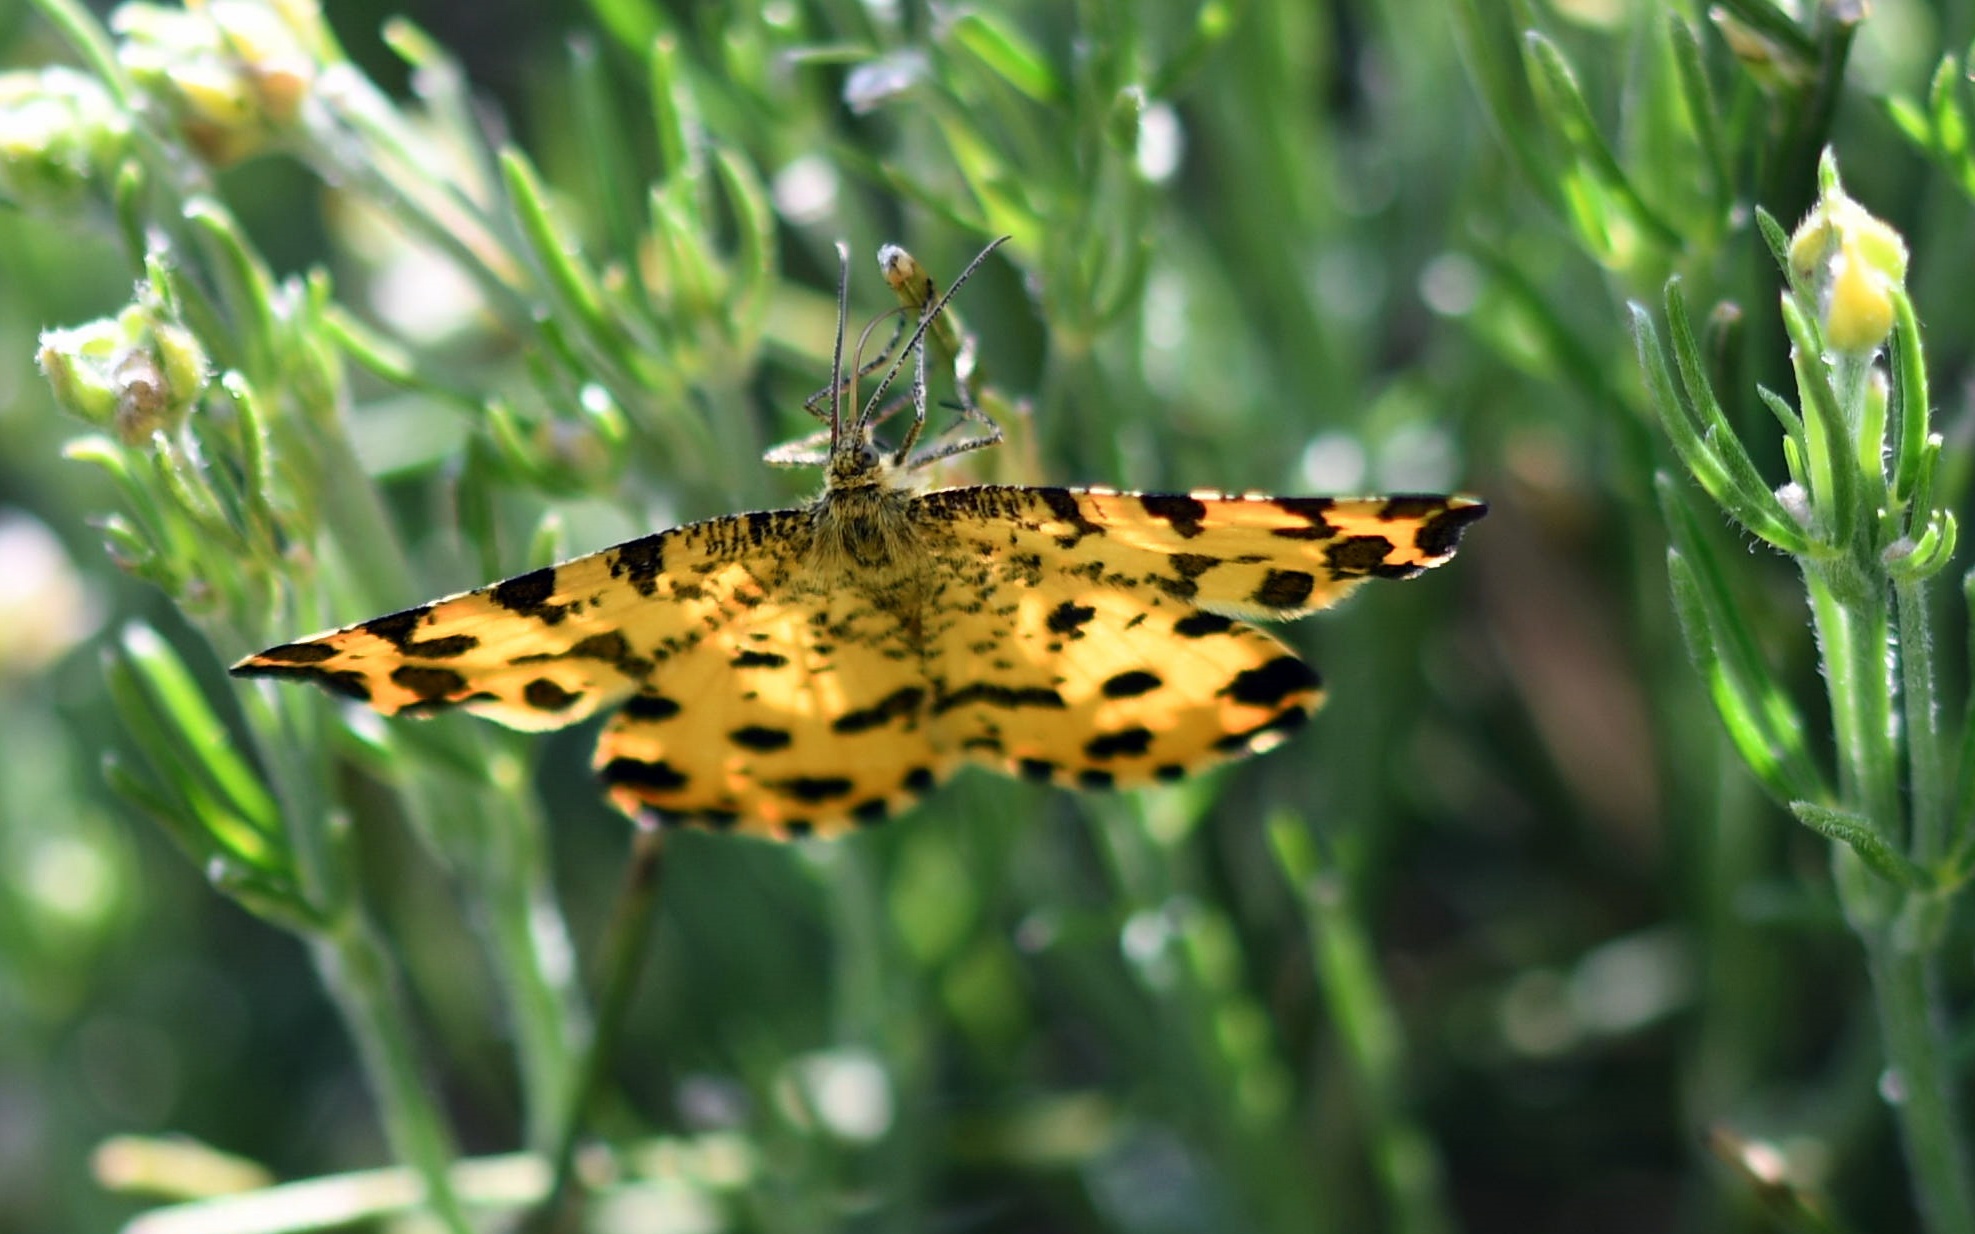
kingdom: Animalia
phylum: Arthropoda
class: Insecta
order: Lepidoptera
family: Geometridae
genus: Pseudopanthera
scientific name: Pseudopanthera macularia
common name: Speckled yellow
